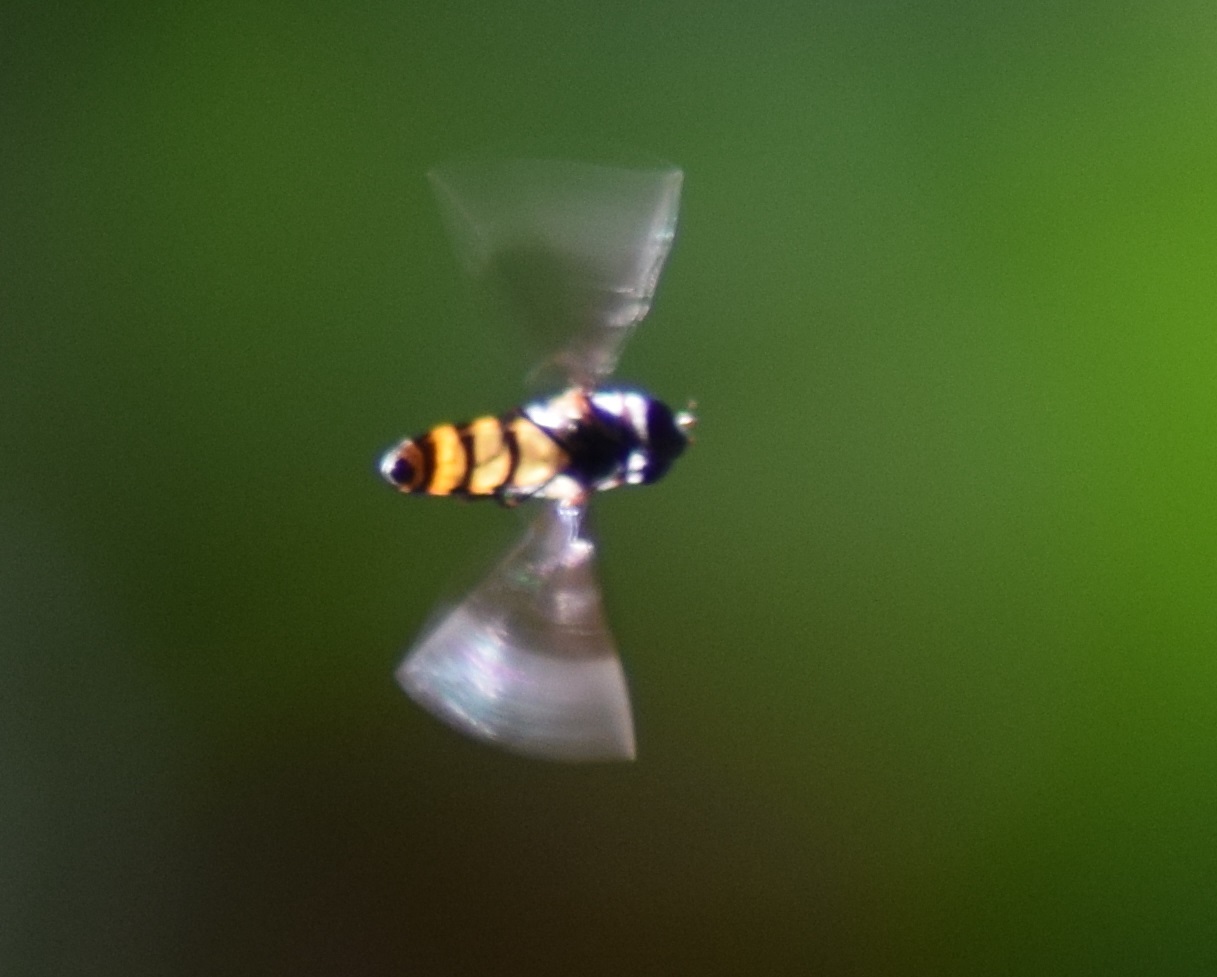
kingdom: Animalia
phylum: Arthropoda
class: Insecta
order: Diptera
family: Syrphidae
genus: Dideopsis
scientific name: Dideopsis aegrota
